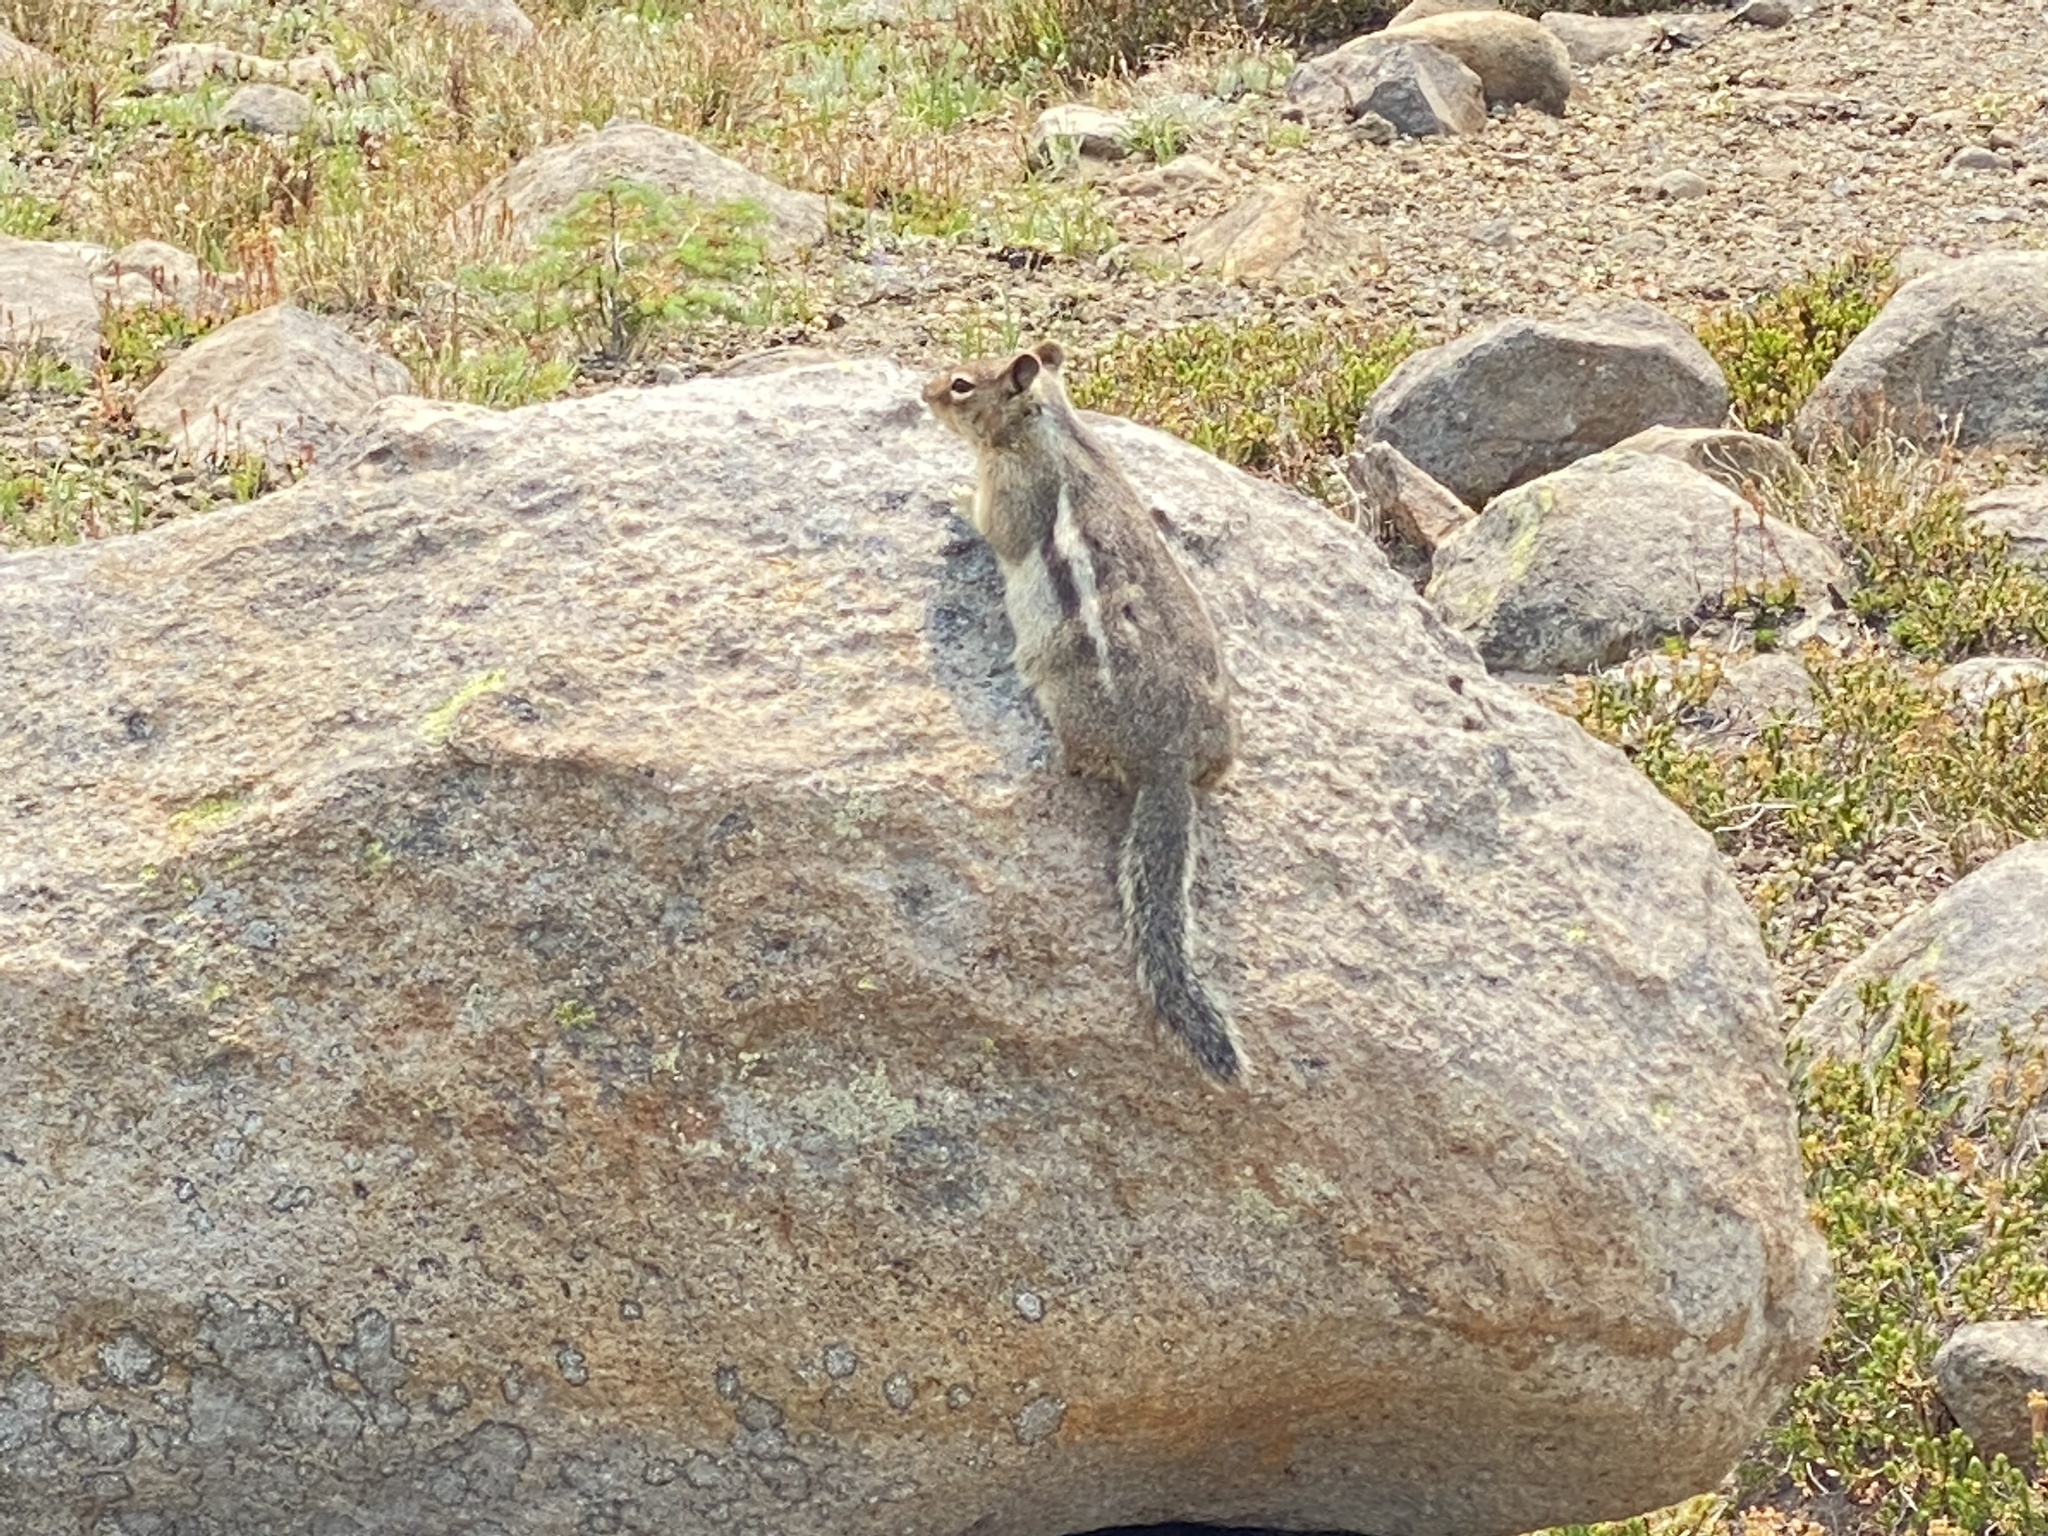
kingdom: Animalia
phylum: Chordata
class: Mammalia
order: Rodentia
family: Sciuridae
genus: Callospermophilus
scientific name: Callospermophilus saturatus
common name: Cascade golden-mantled ground squirrel
